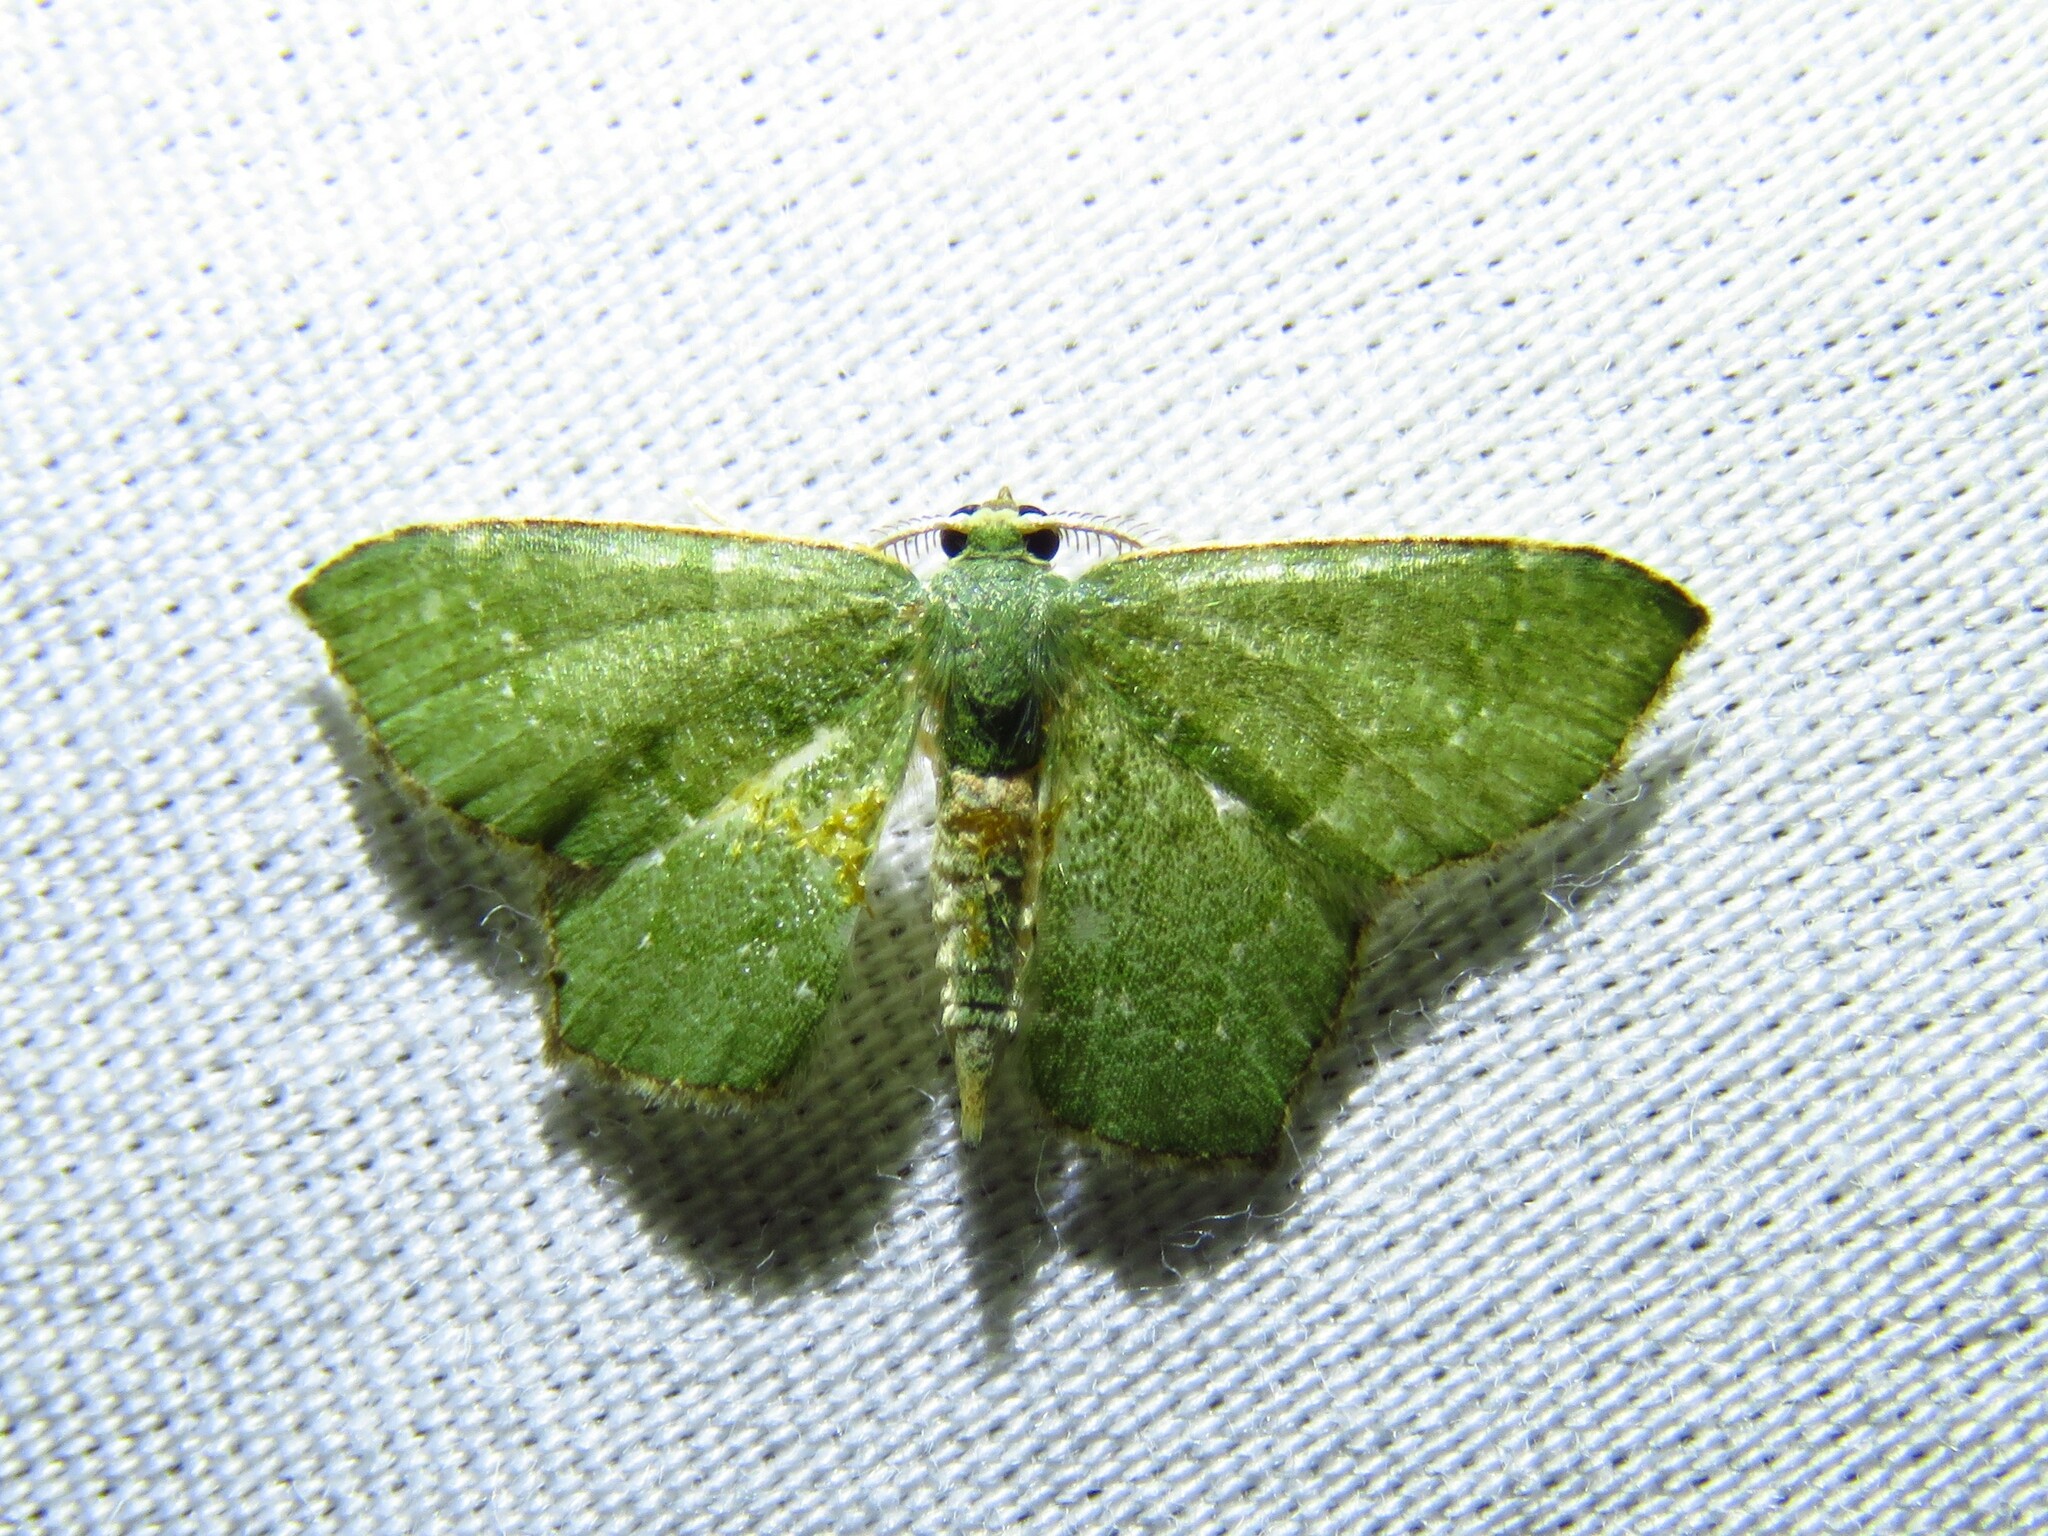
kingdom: Animalia
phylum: Arthropoda
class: Insecta
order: Lepidoptera
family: Geometridae
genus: Chloropteryx
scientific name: Chloropteryx nordicaria
